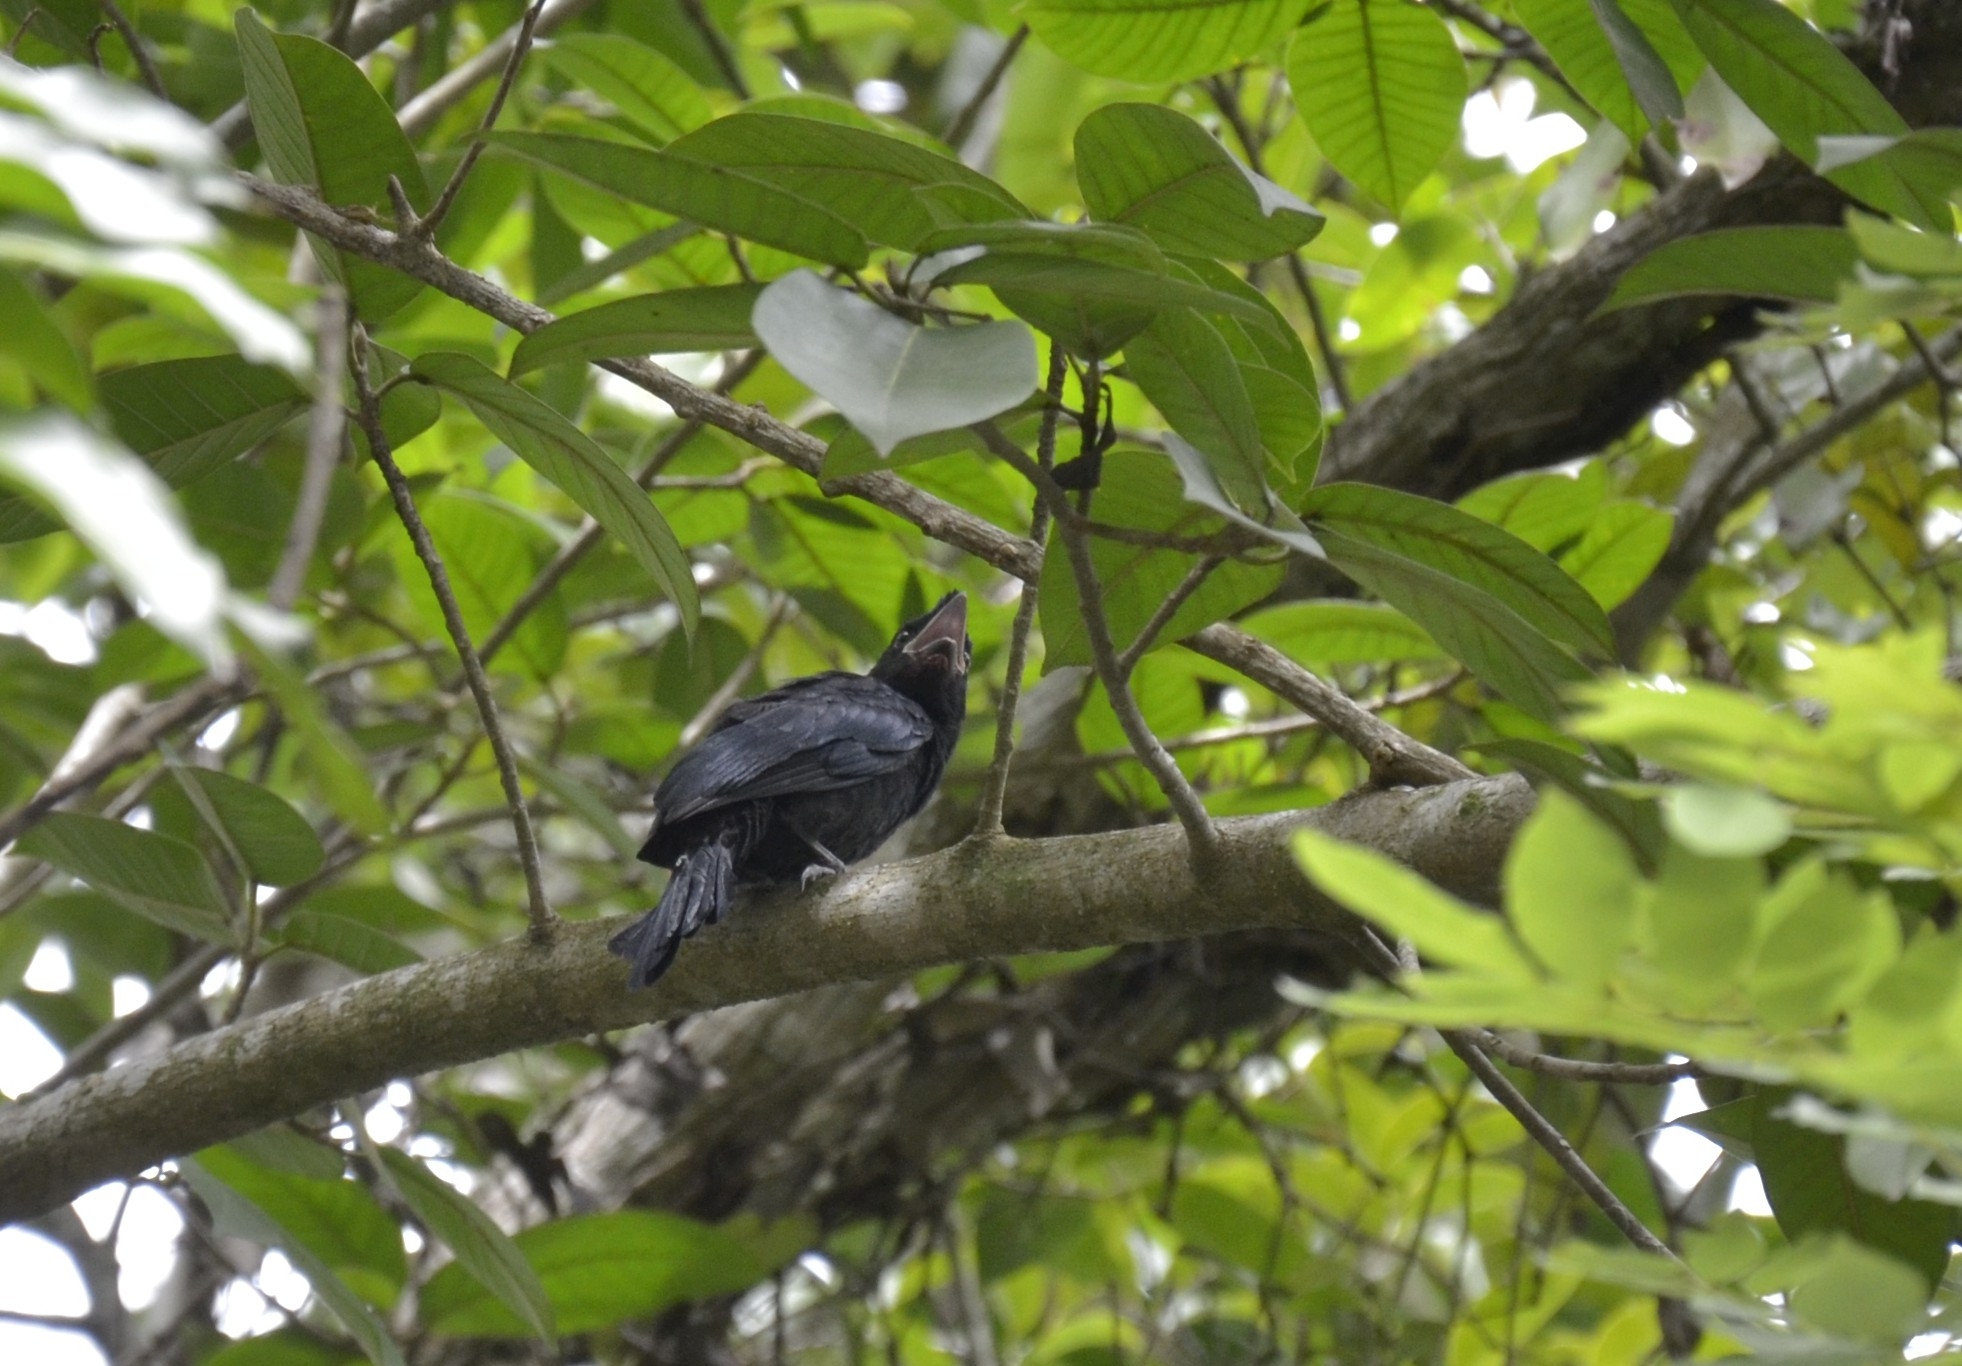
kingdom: Animalia
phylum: Chordata
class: Aves
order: Passeriformes
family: Dicruridae
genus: Dicrurus
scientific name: Dicrurus paradiseus
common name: Greater racket-tailed drongo
